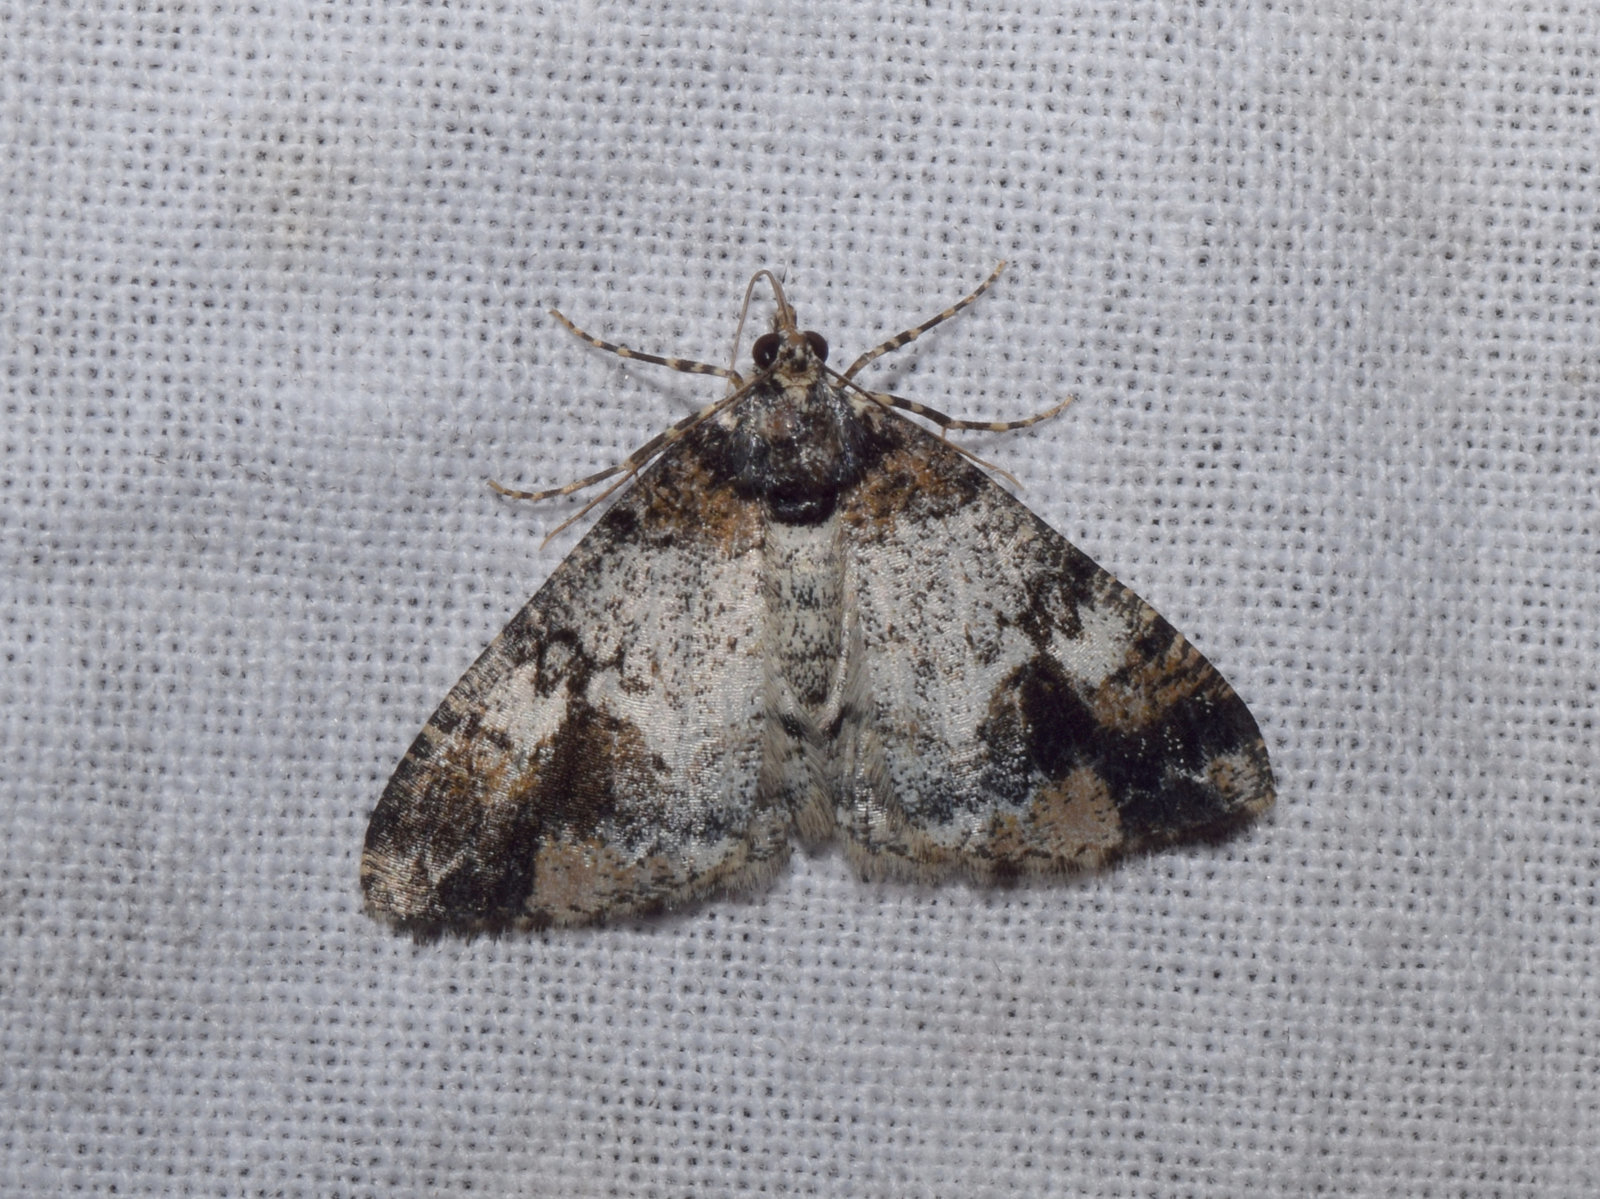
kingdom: Animalia
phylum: Arthropoda
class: Insecta
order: Lepidoptera
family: Geometridae
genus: Alcis
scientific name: Alcis admissaria
